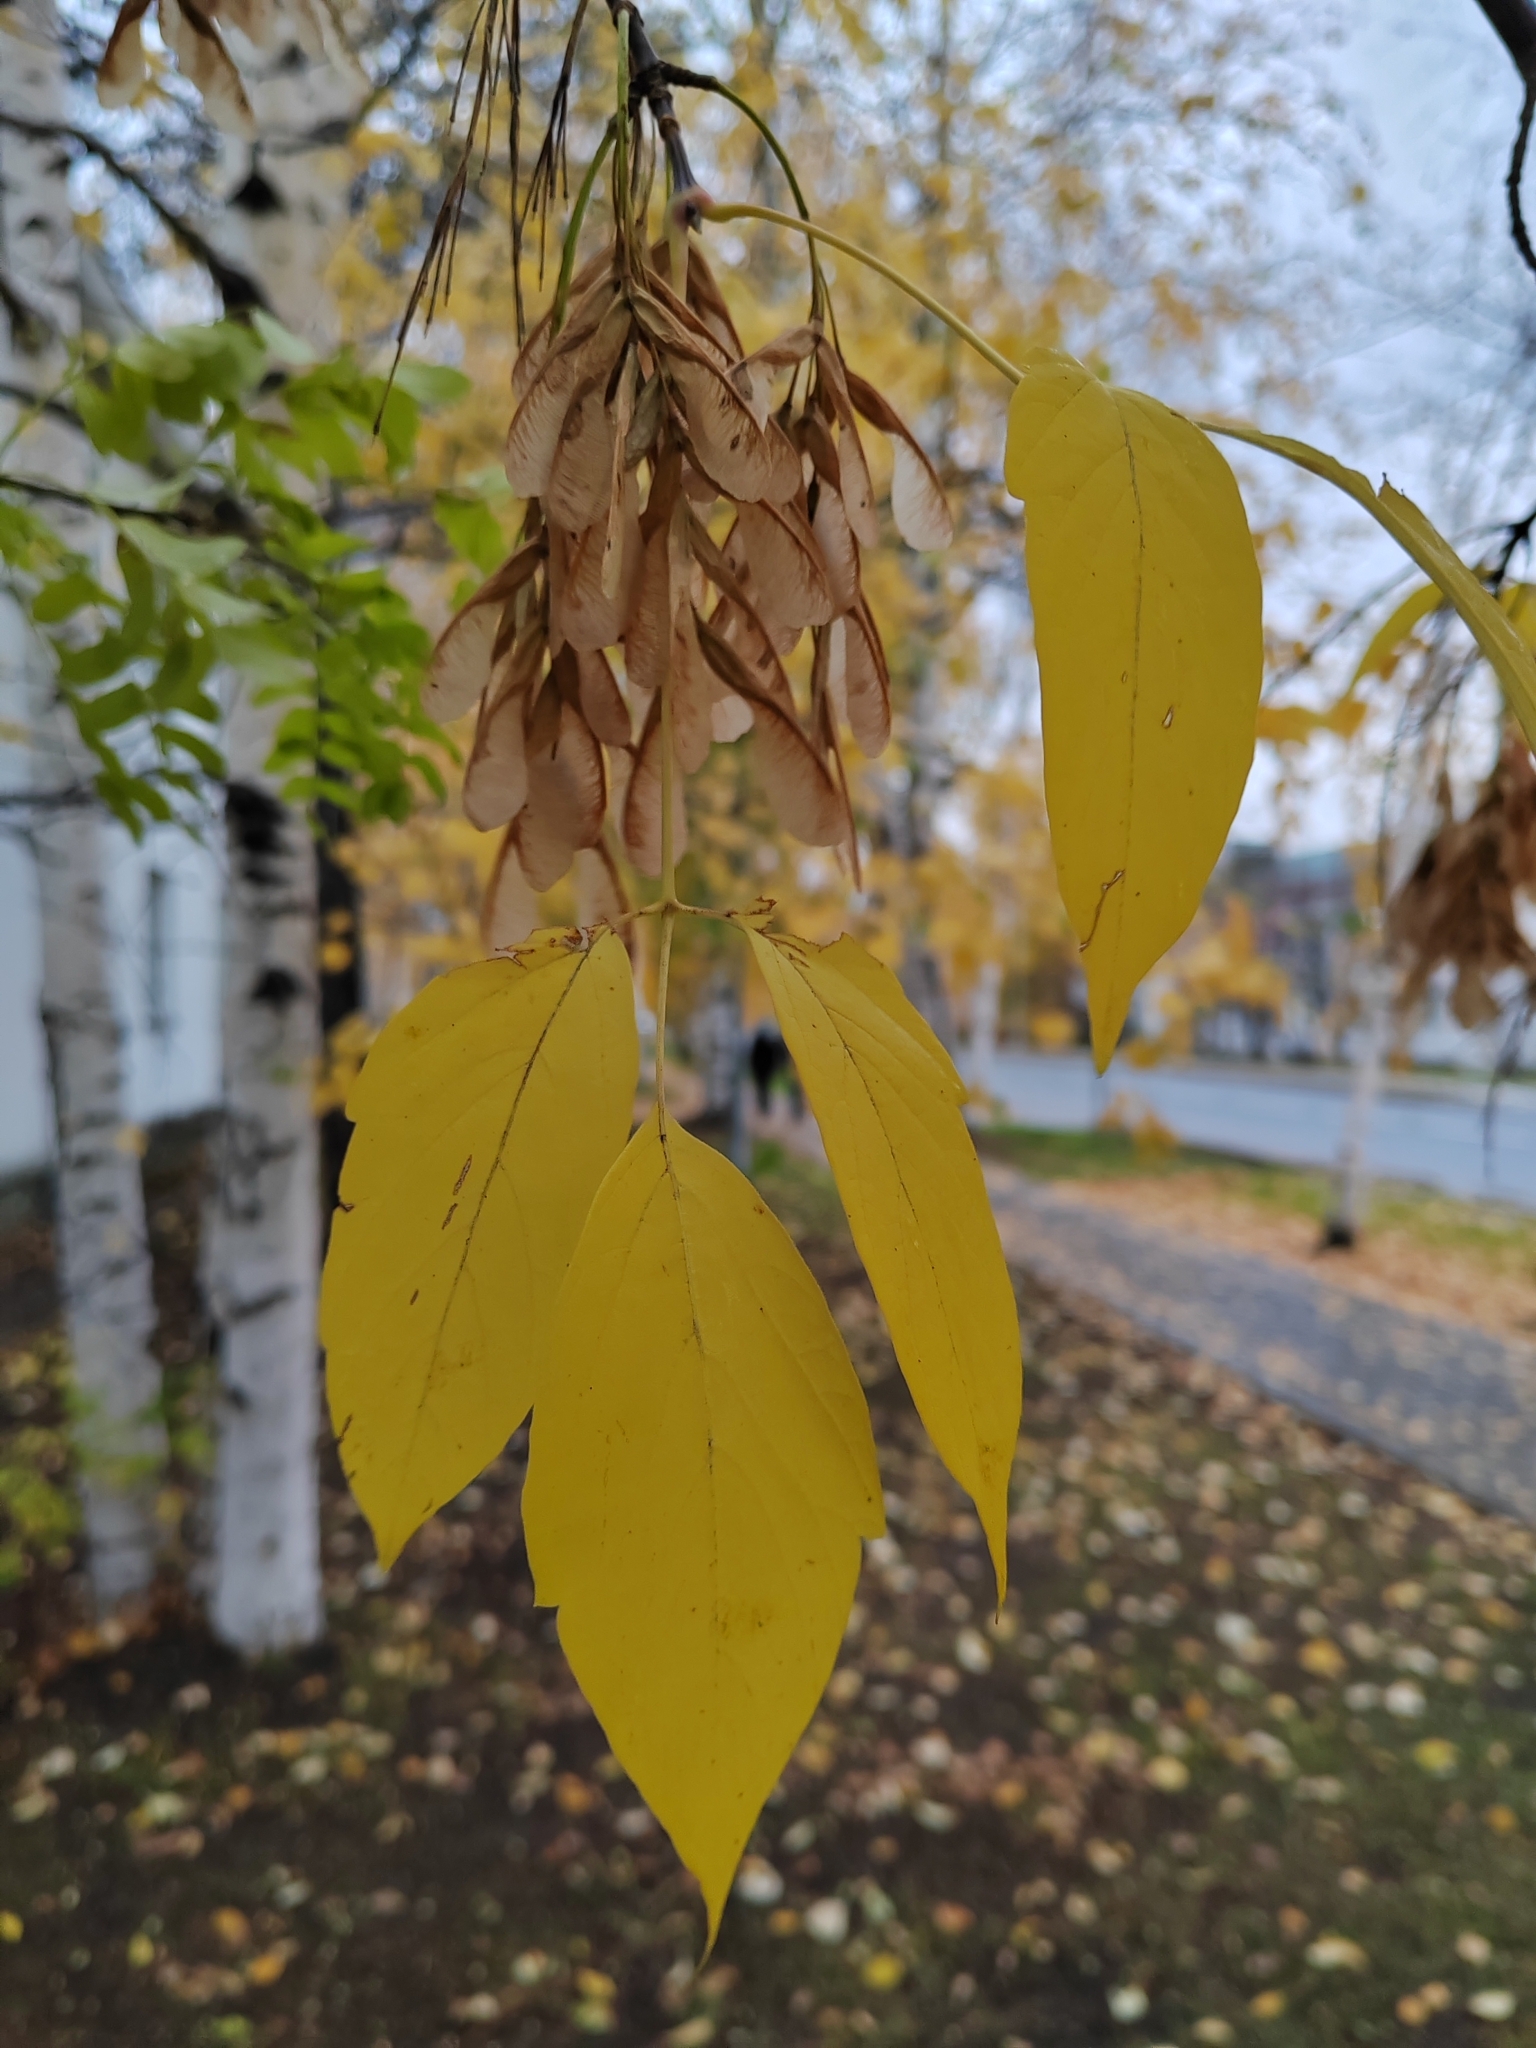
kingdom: Plantae
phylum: Tracheophyta
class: Magnoliopsida
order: Sapindales
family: Sapindaceae
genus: Acer
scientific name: Acer negundo
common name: Ashleaf maple
